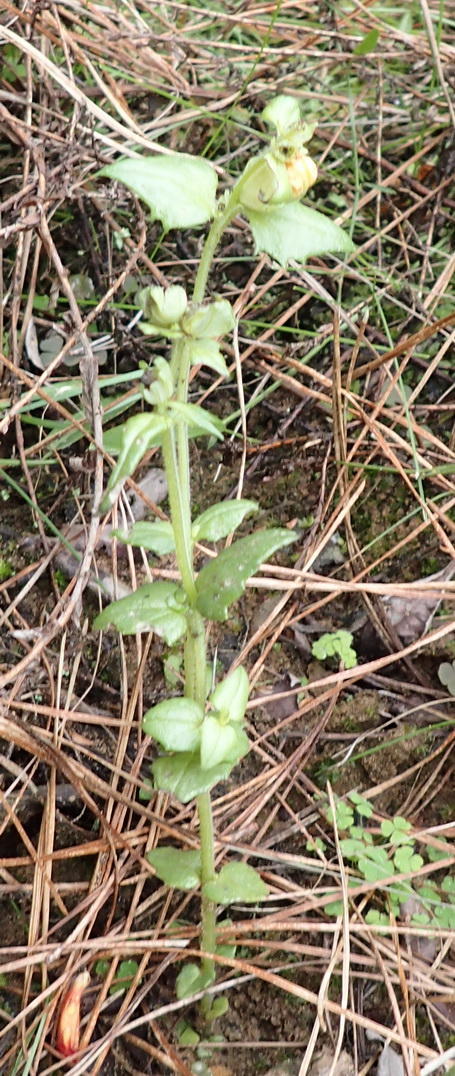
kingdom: Plantae
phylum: Tracheophyta
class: Magnoliopsida
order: Lamiales
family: Orobanchaceae
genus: Alectra
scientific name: Alectra sessiliflora
